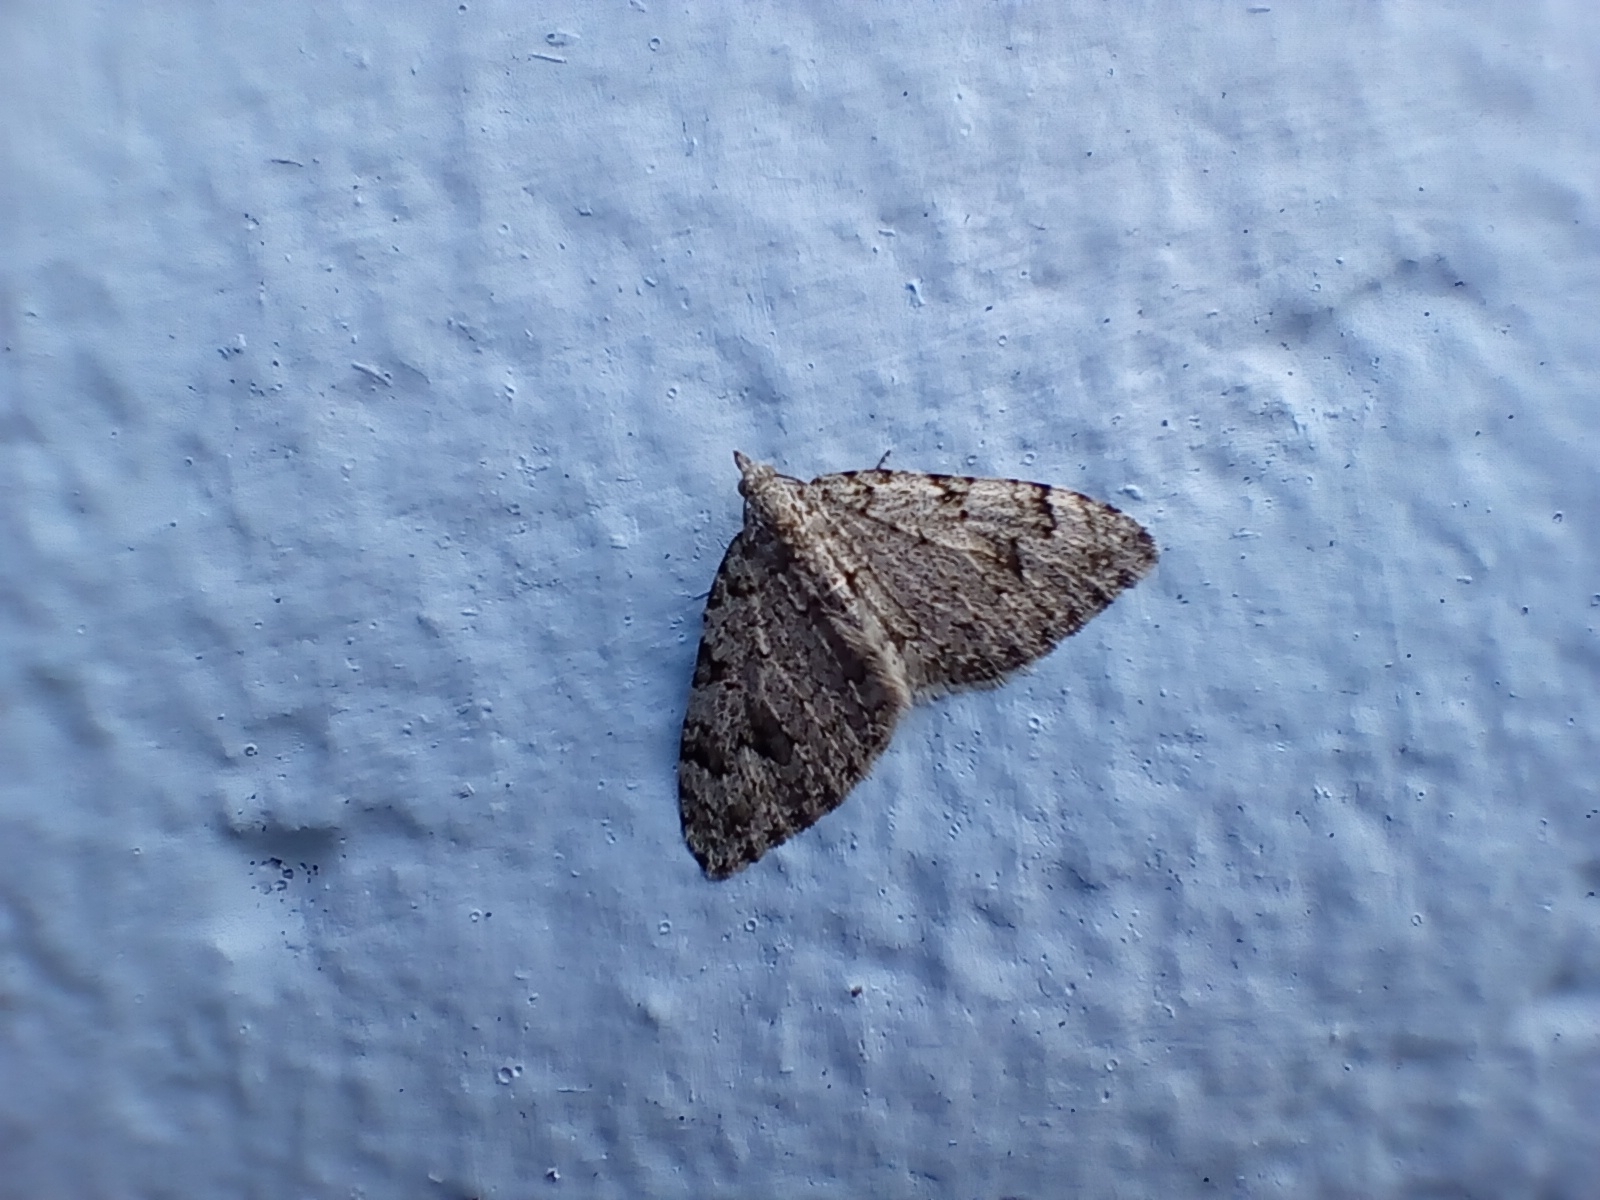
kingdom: Animalia
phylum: Arthropoda
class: Insecta
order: Lepidoptera
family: Geometridae
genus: Helastia
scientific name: Helastia cinerearia
